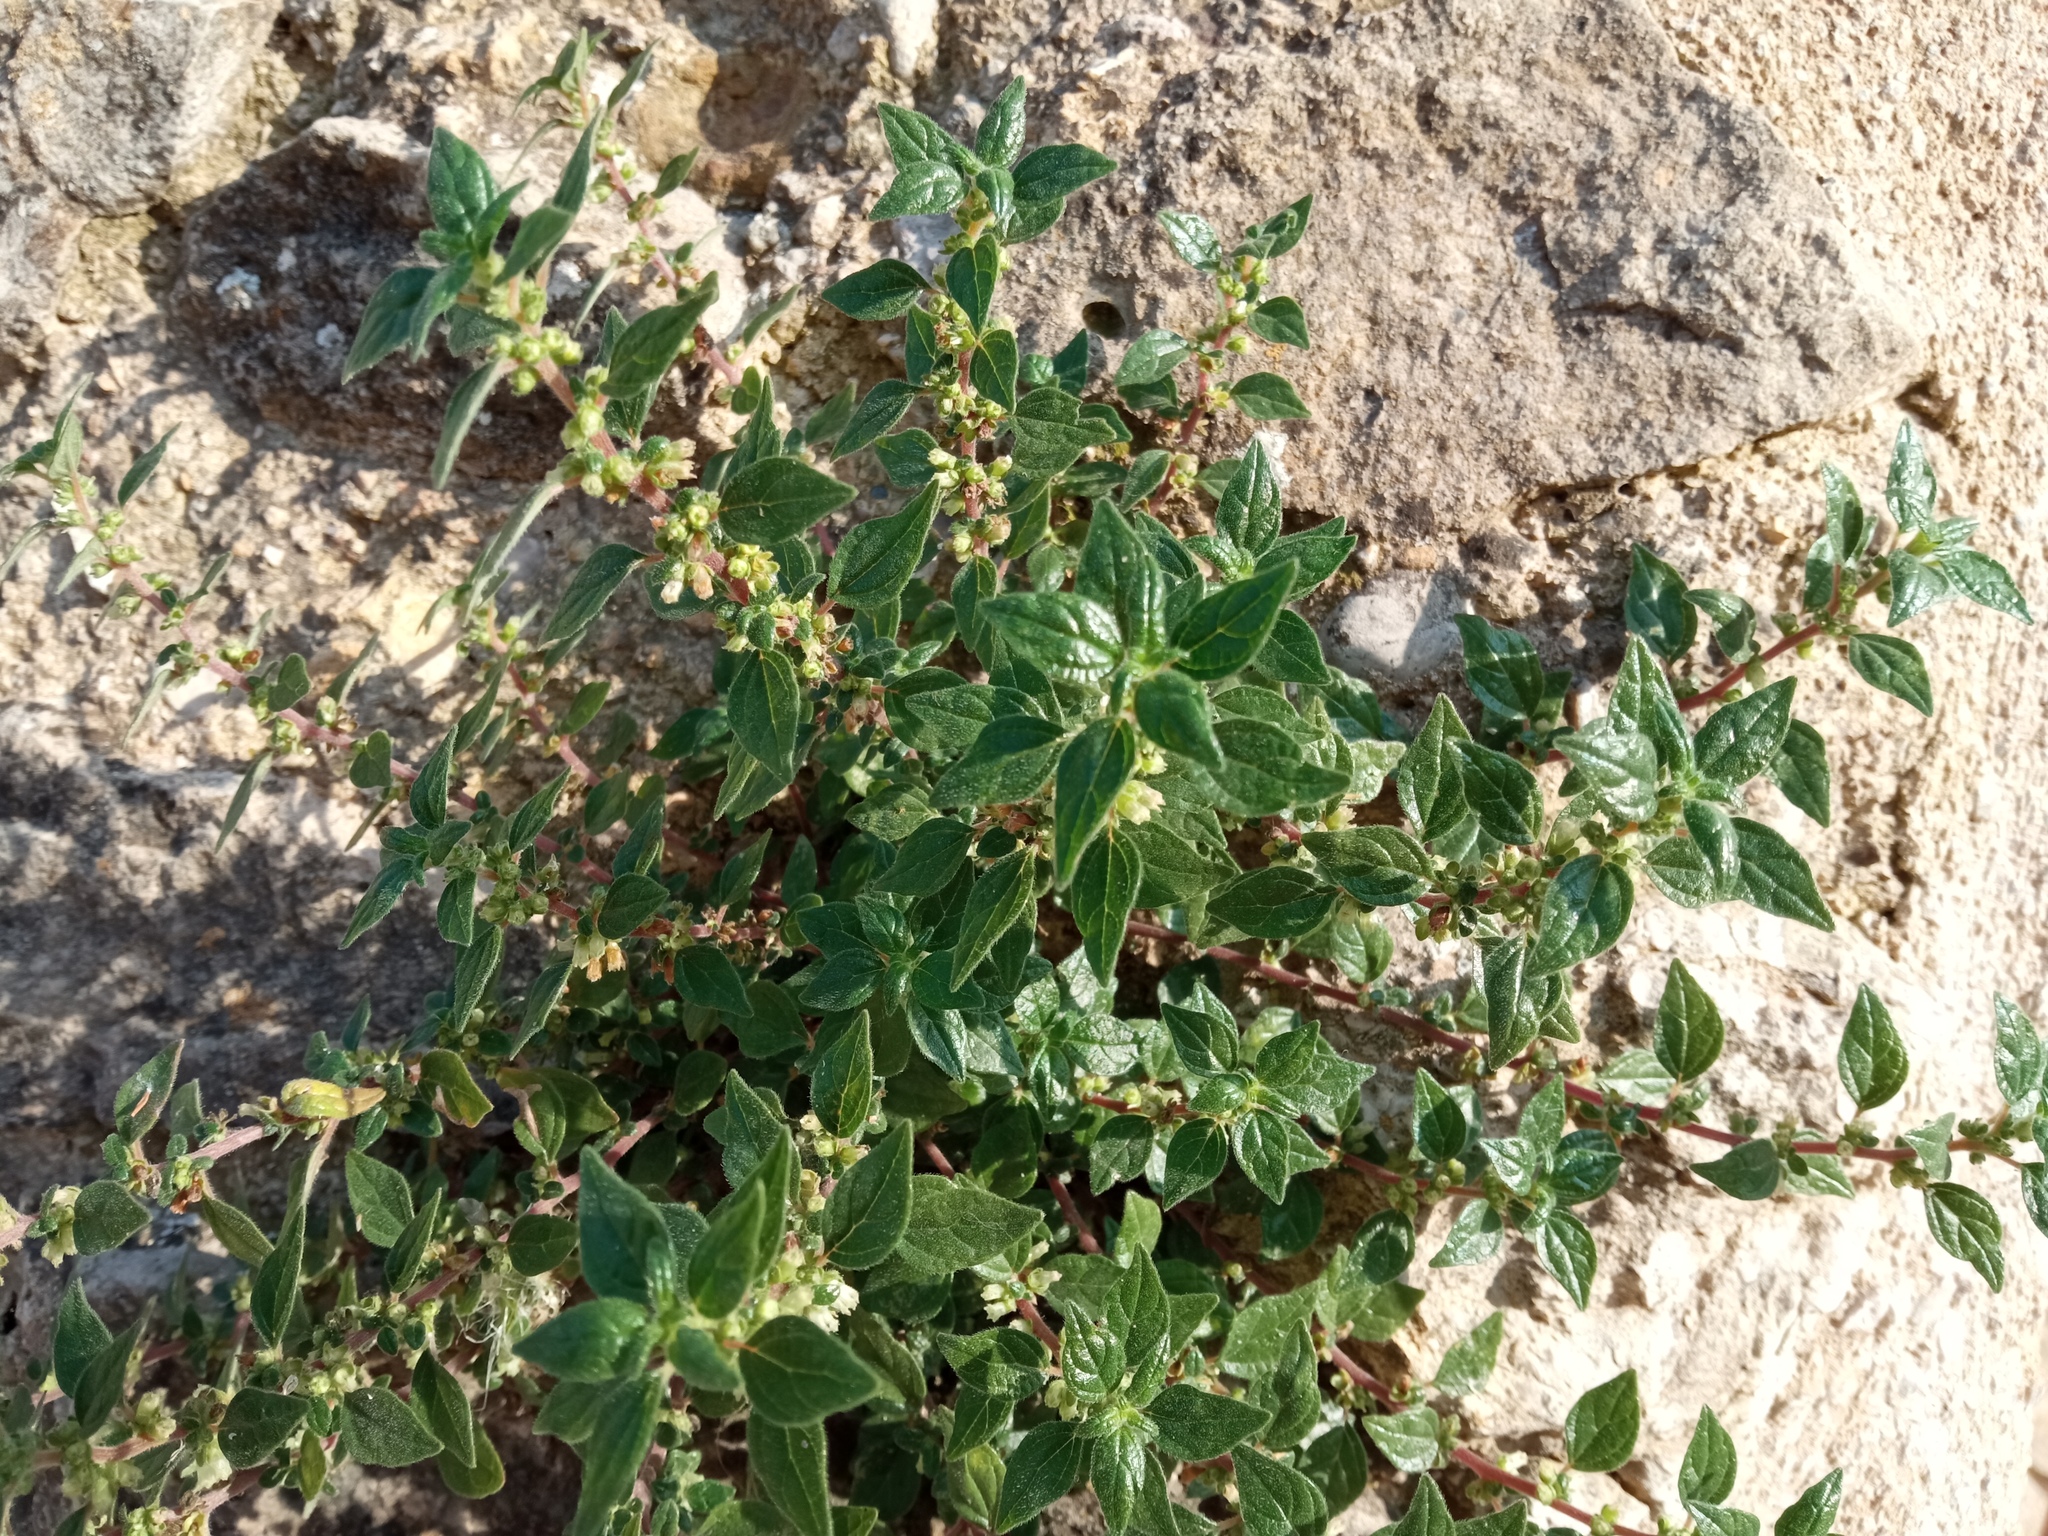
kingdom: Plantae
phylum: Tracheophyta
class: Magnoliopsida
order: Rosales
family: Urticaceae
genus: Parietaria
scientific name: Parietaria judaica
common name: Pellitory-of-the-wall
